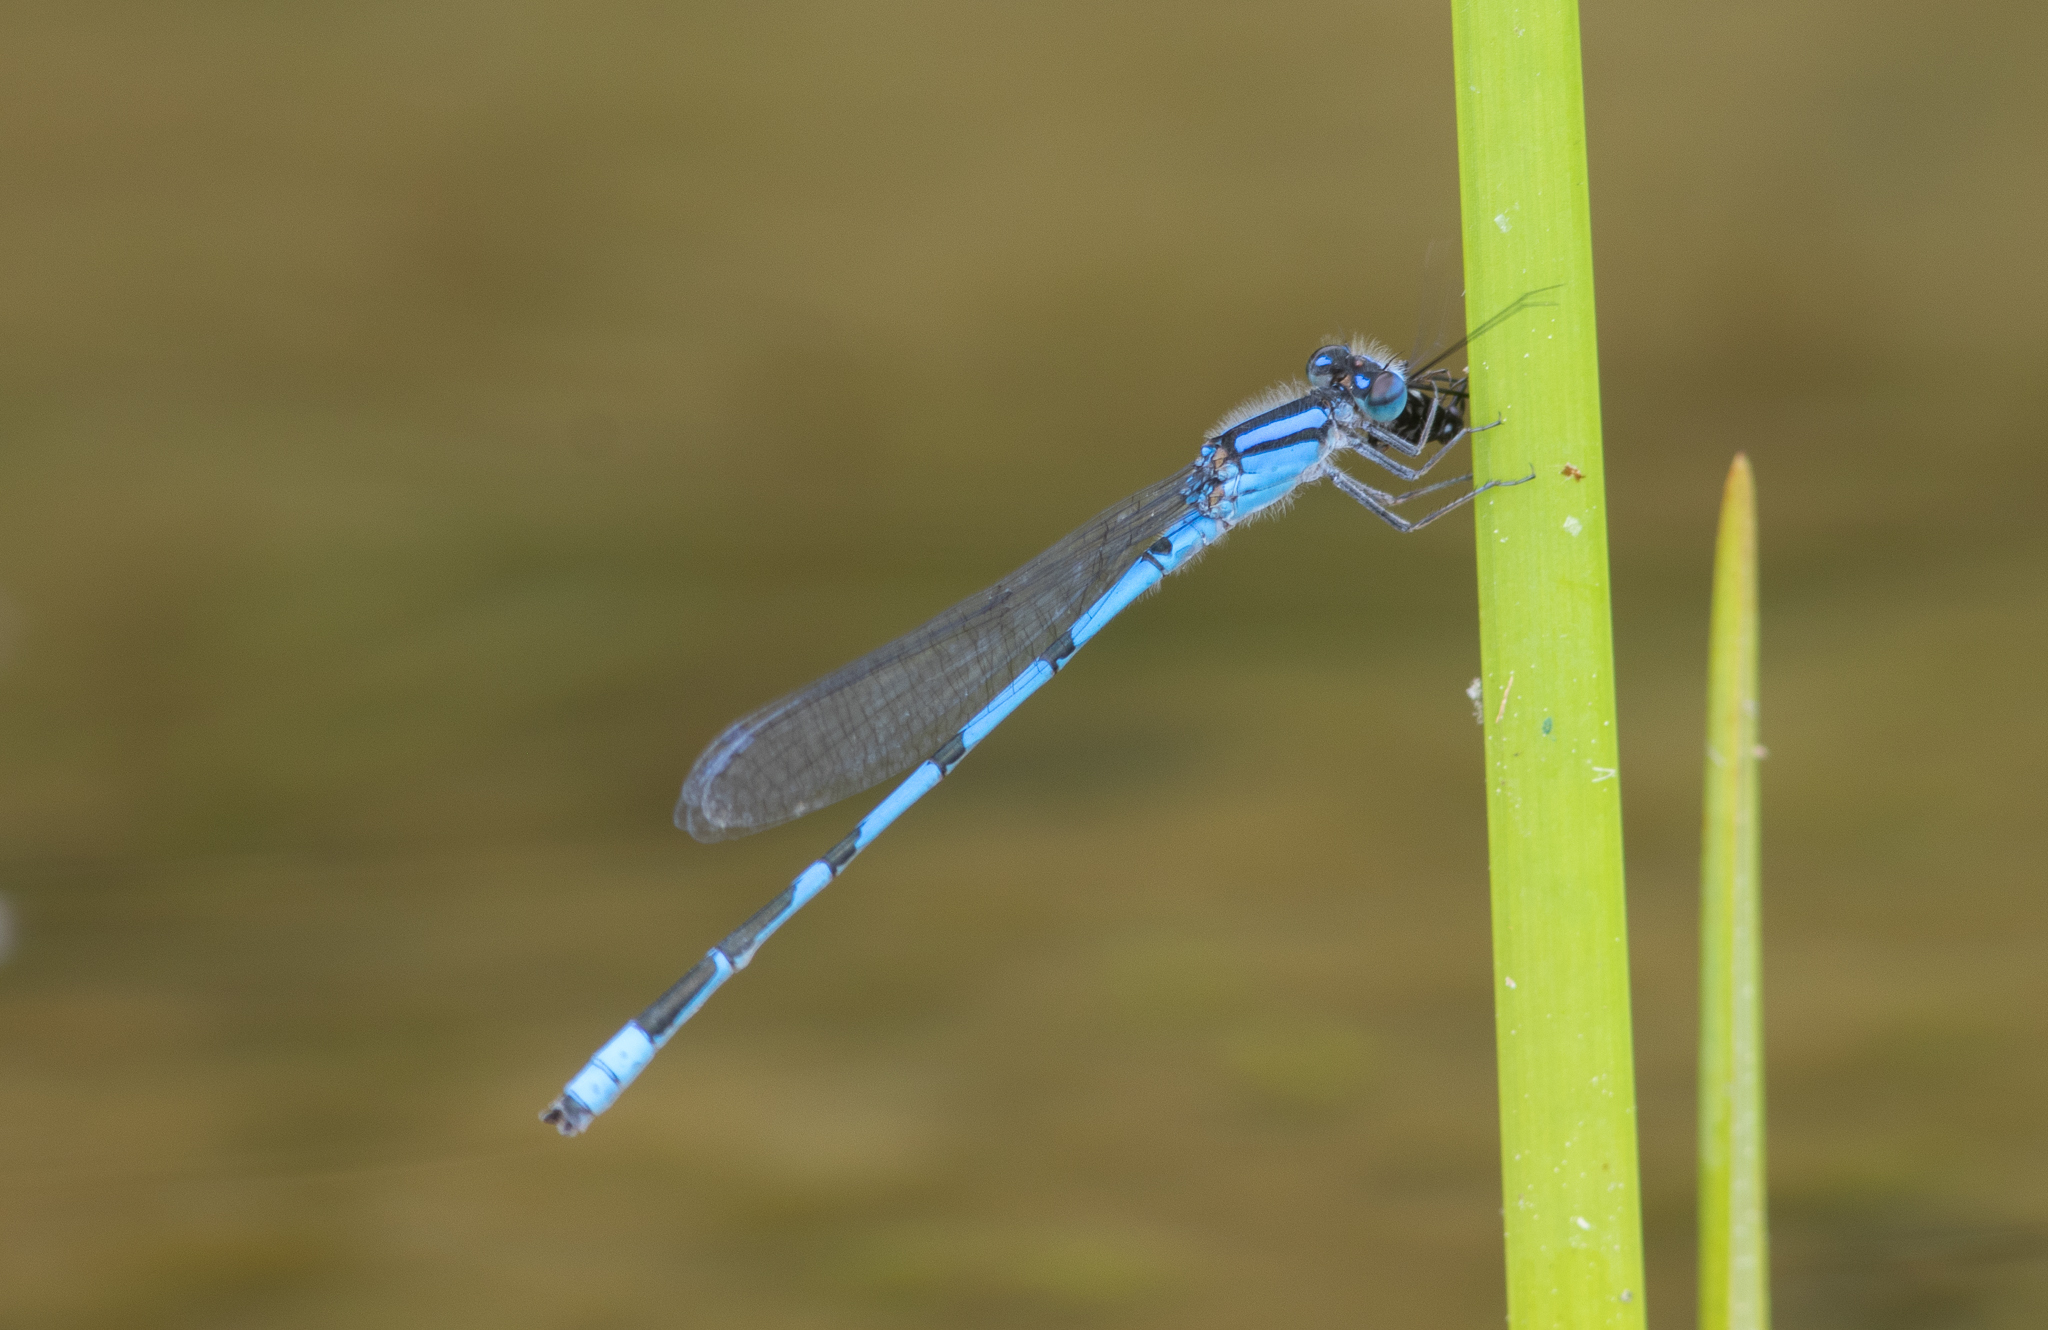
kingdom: Animalia
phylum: Arthropoda
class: Insecta
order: Odonata
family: Coenagrionidae
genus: Enallagma
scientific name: Enallagma civile
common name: Damselfly
